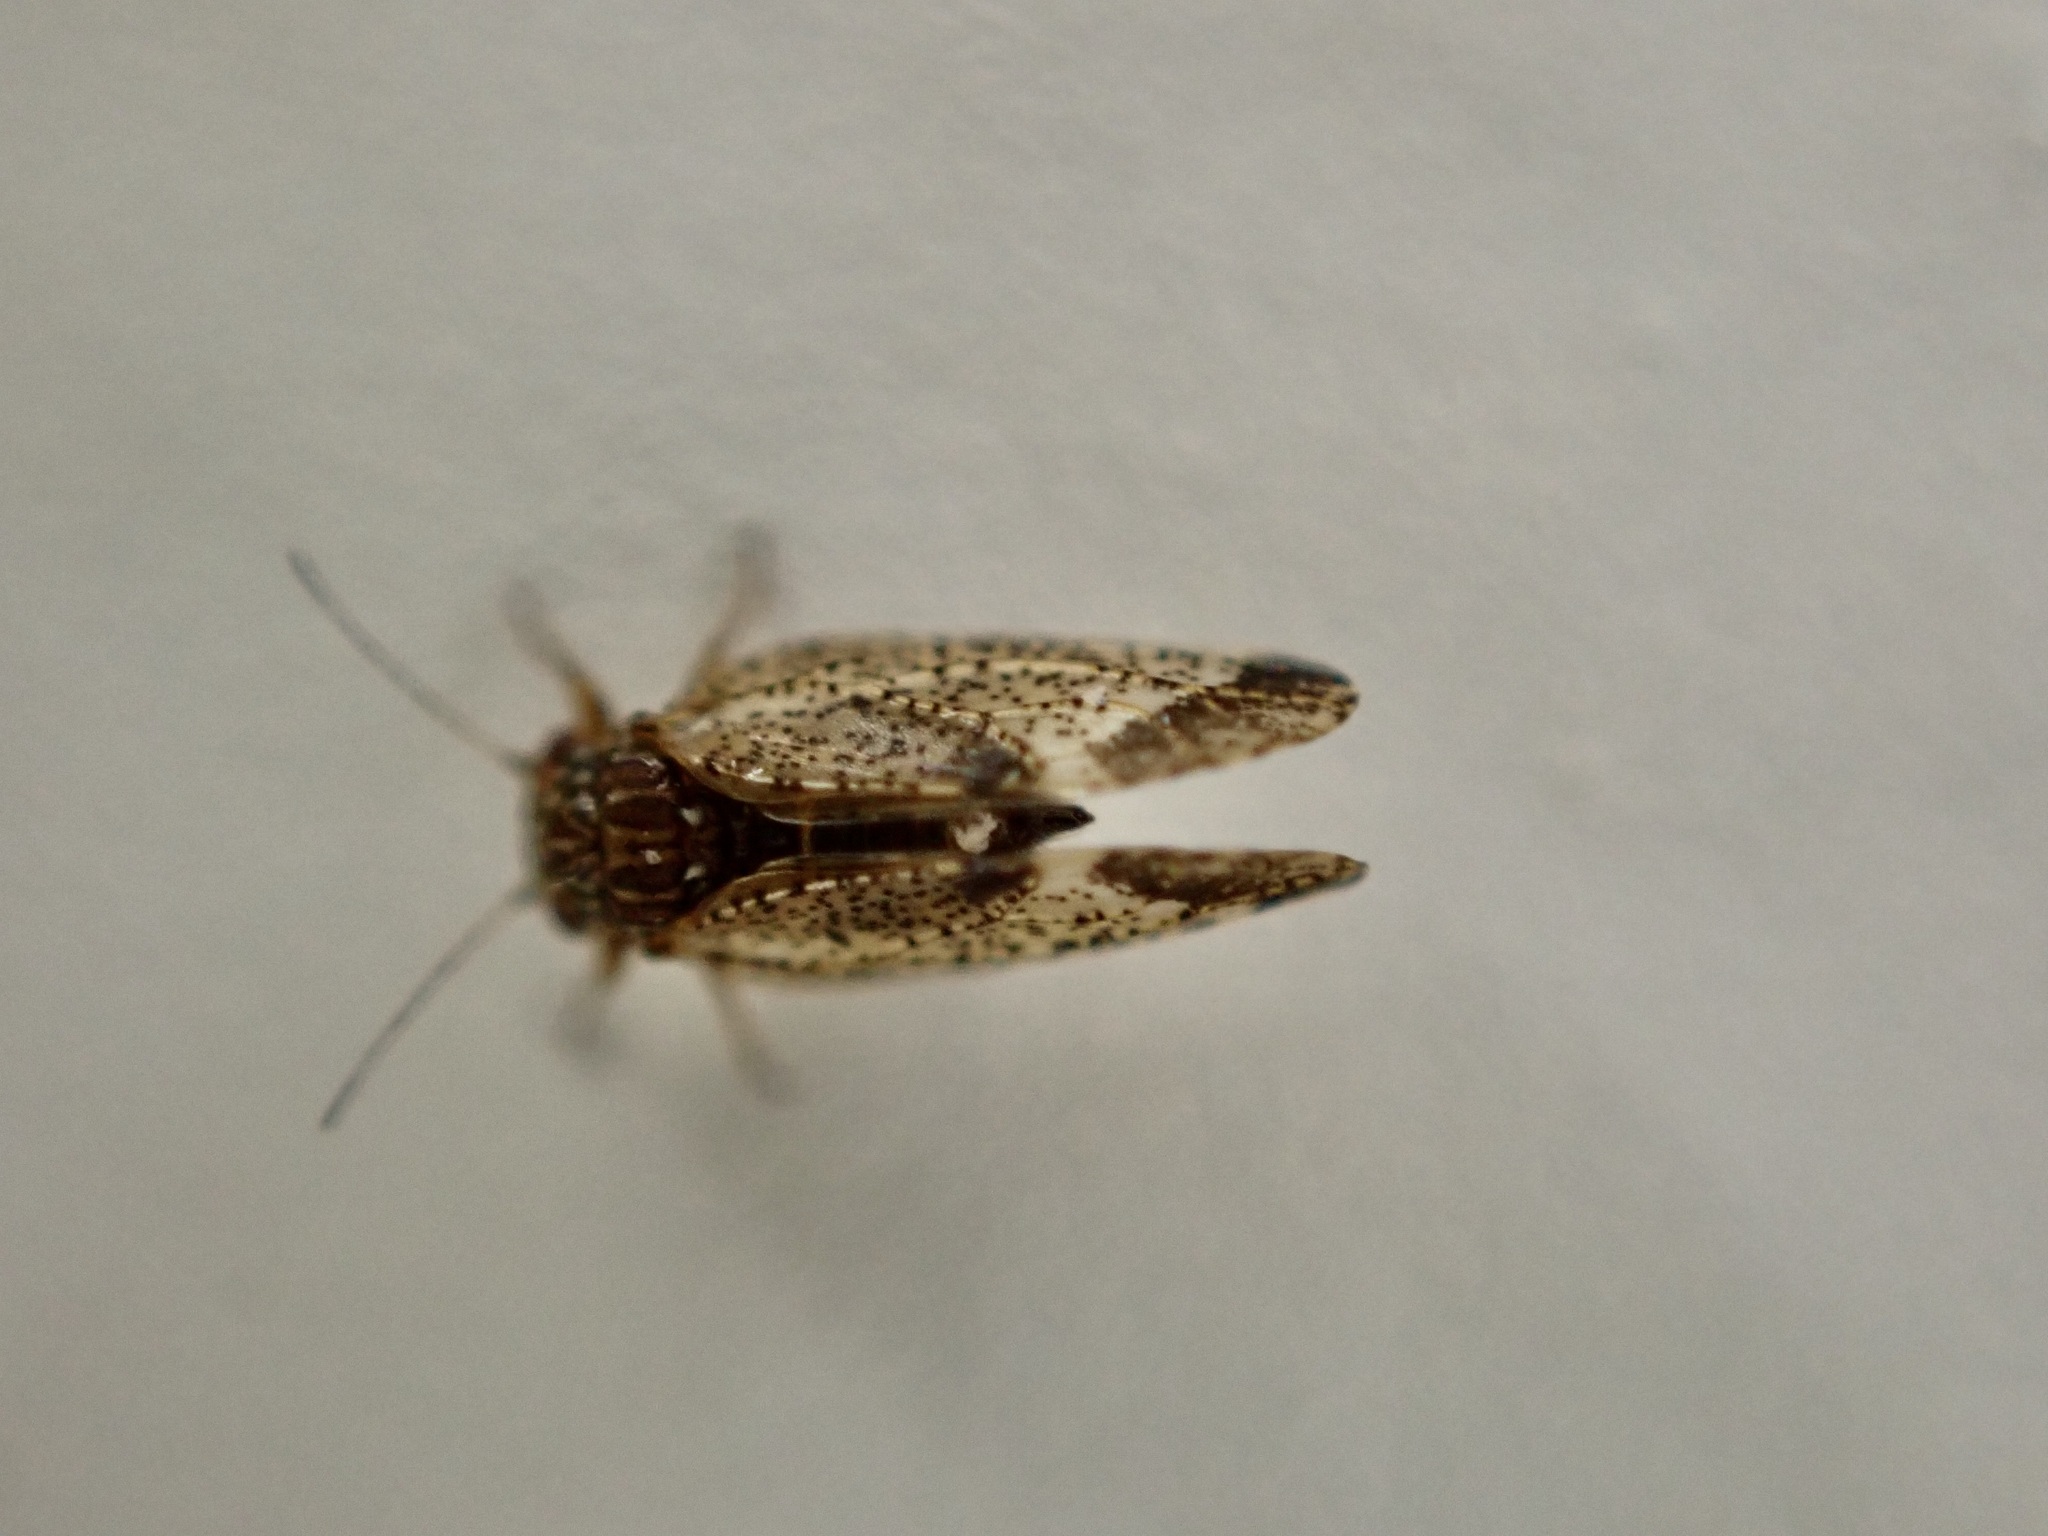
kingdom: Animalia
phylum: Arthropoda
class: Insecta
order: Hemiptera
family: Psyllidae
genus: Acizzia
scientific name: Acizzia apicalis
